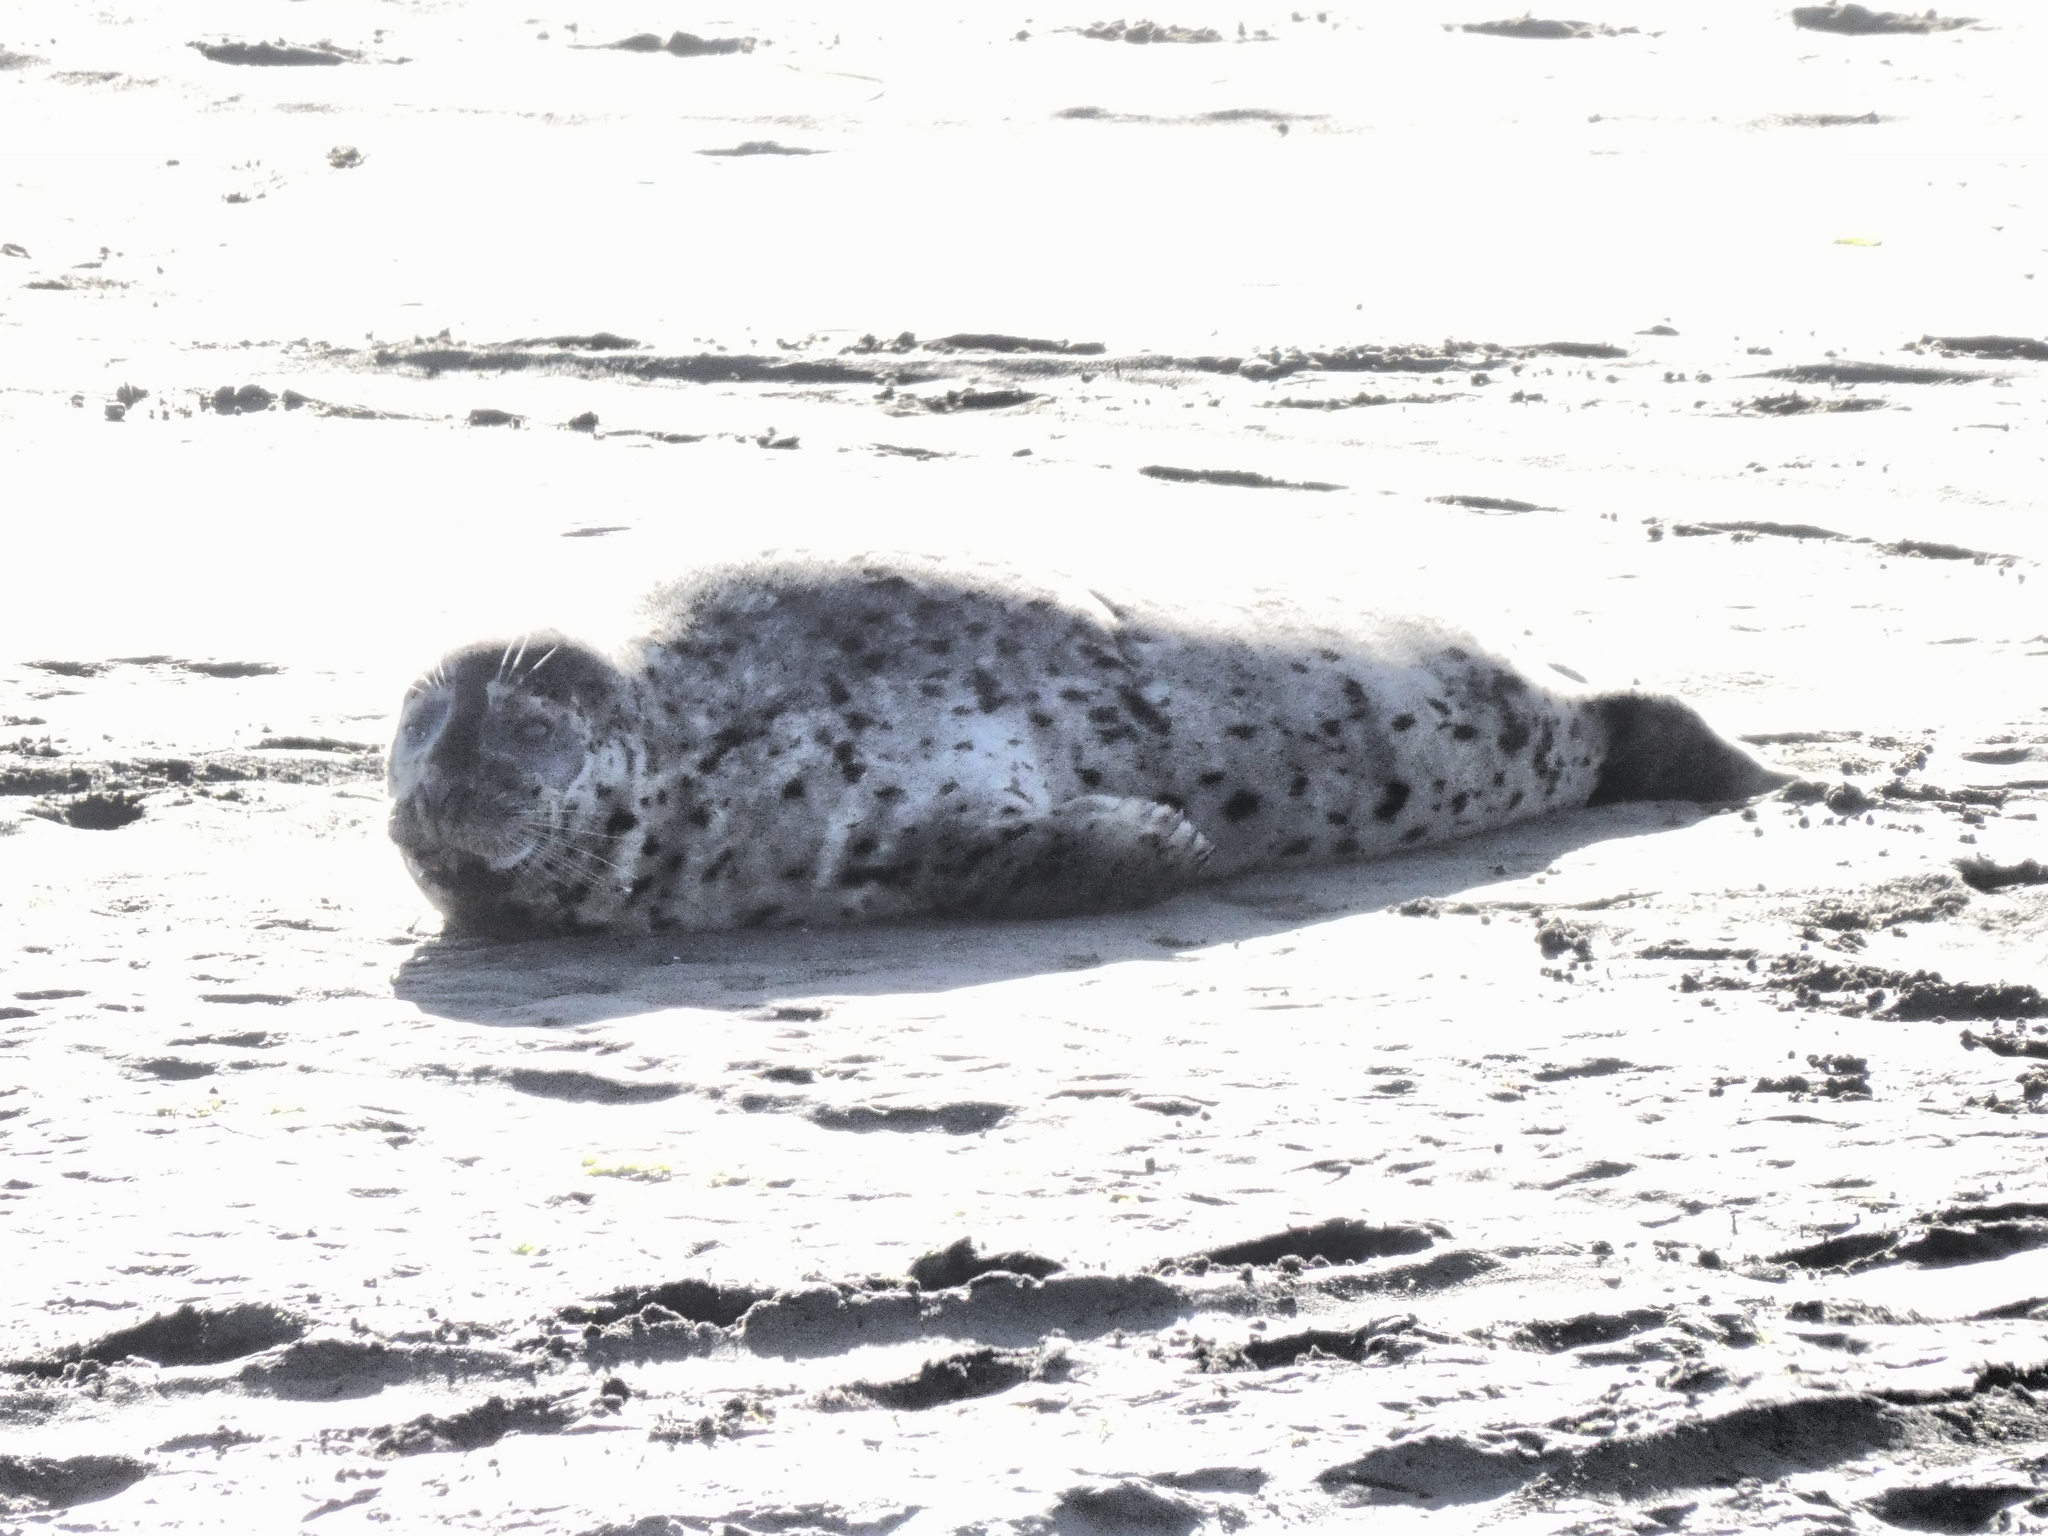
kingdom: Animalia
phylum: Chordata
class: Mammalia
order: Carnivora
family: Phocidae
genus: Phoca
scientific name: Phoca vitulina
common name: Harbor seal
